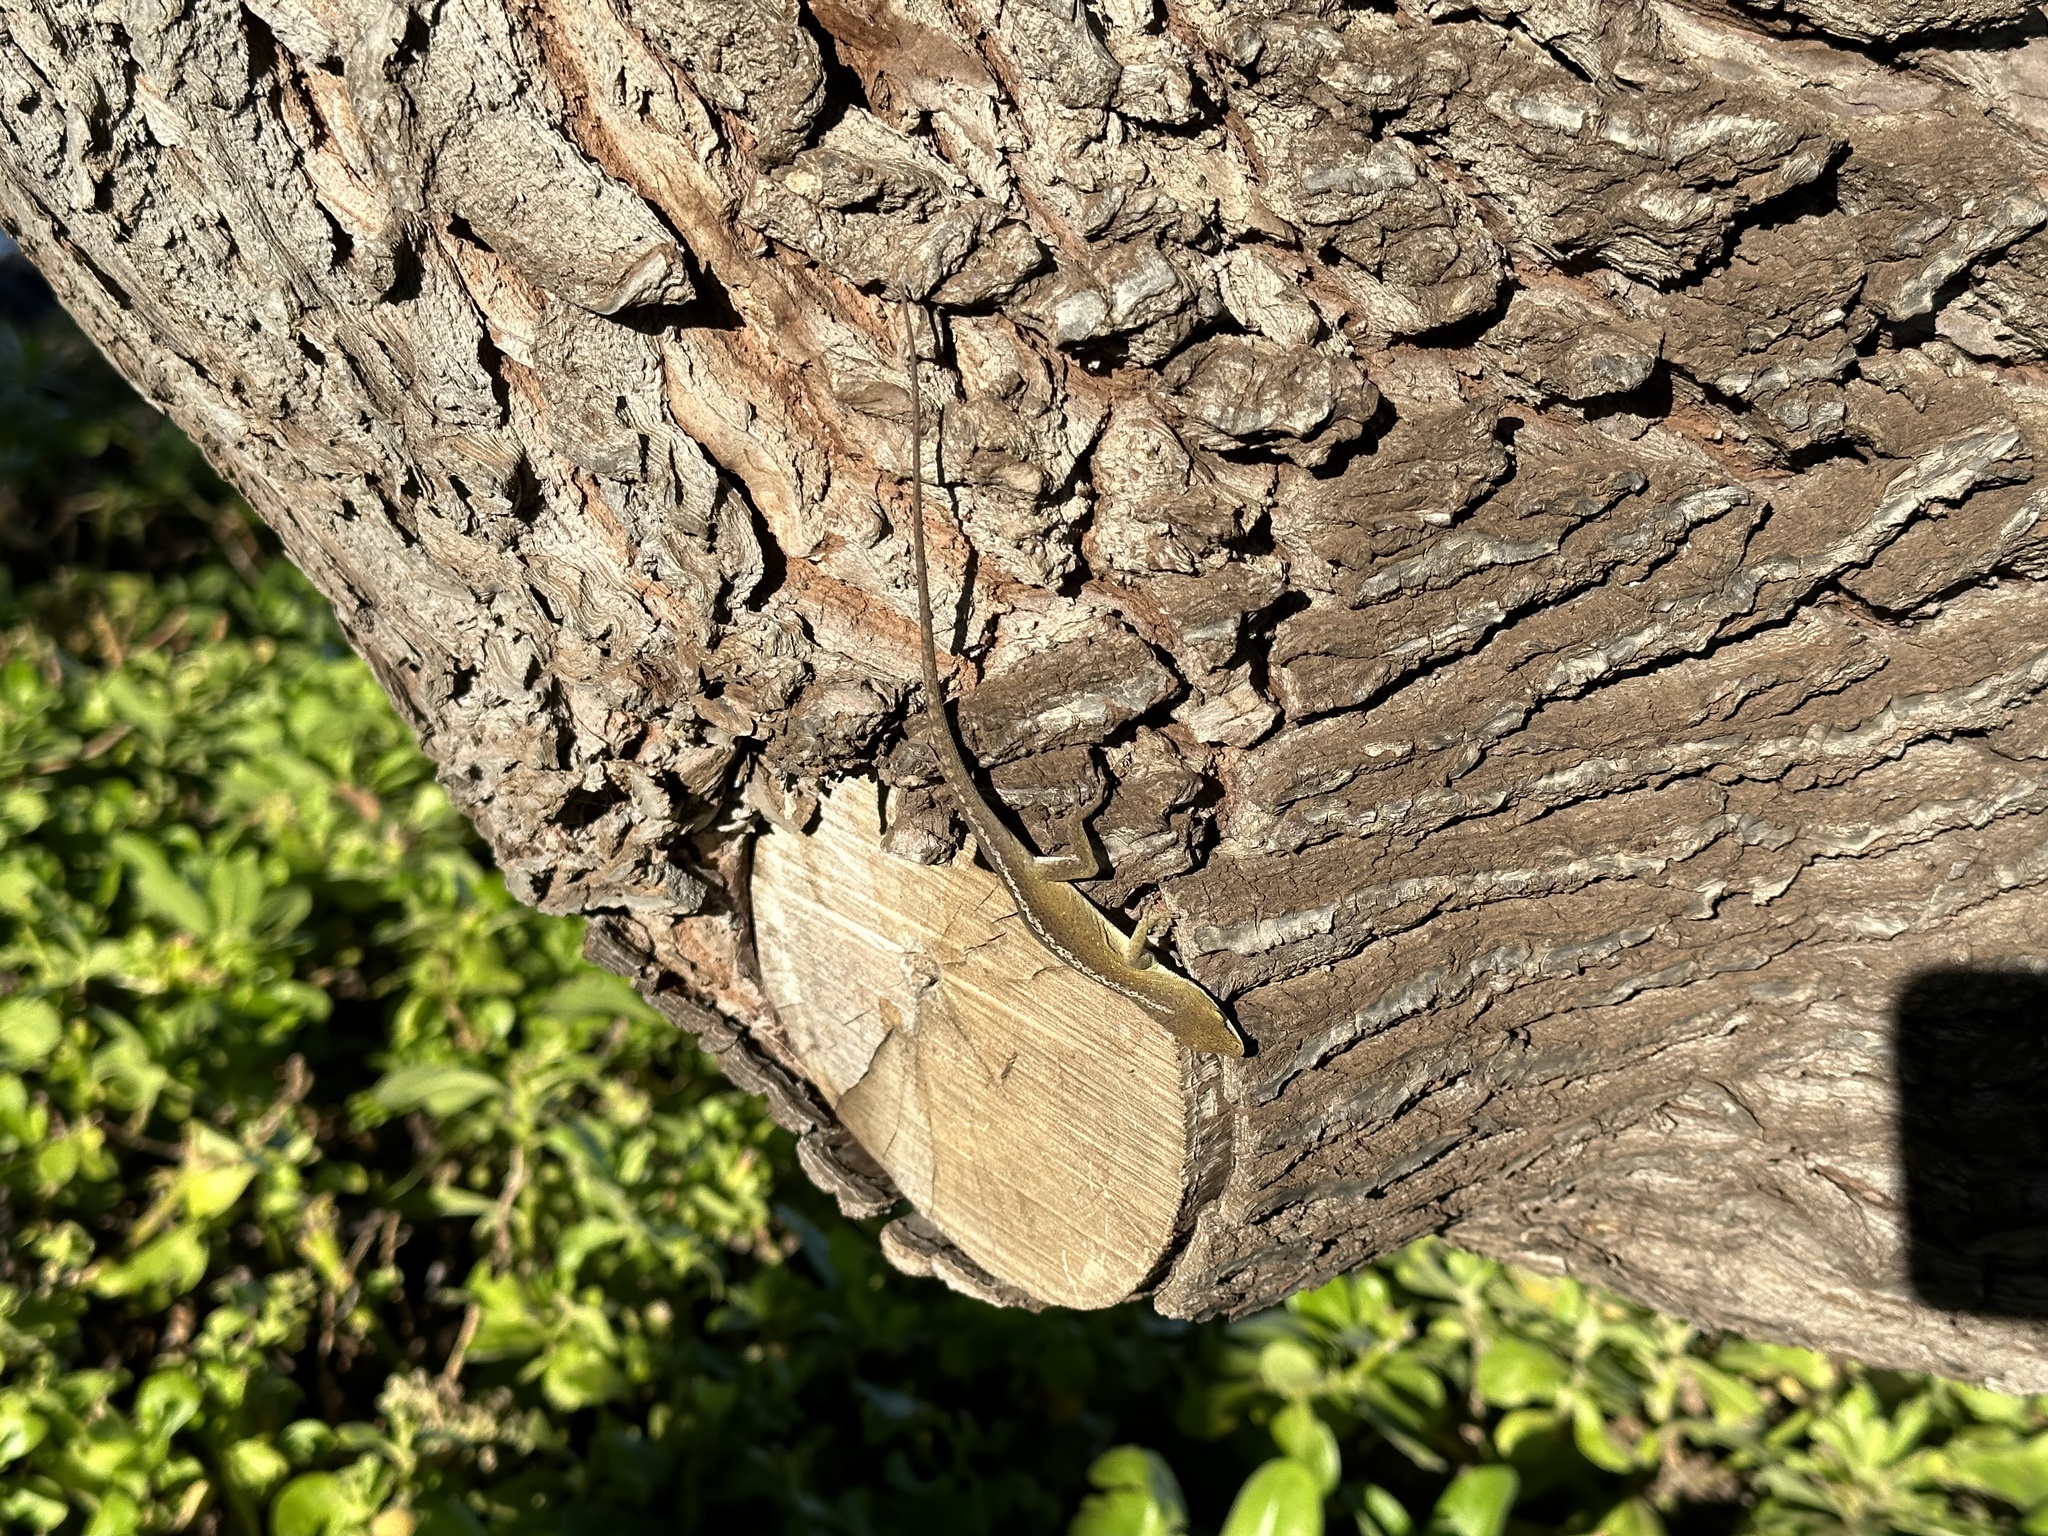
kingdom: Animalia
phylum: Chordata
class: Squamata
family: Dactyloidae
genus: Anolis
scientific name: Anolis carolinensis
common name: Green anole
